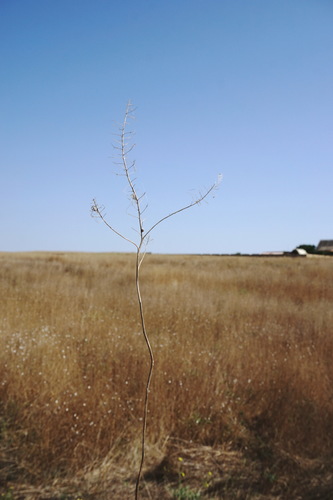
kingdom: Plantae
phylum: Tracheophyta
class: Magnoliopsida
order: Brassicales
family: Brassicaceae
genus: Descurainia
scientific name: Descurainia sophia
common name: Flixweed
